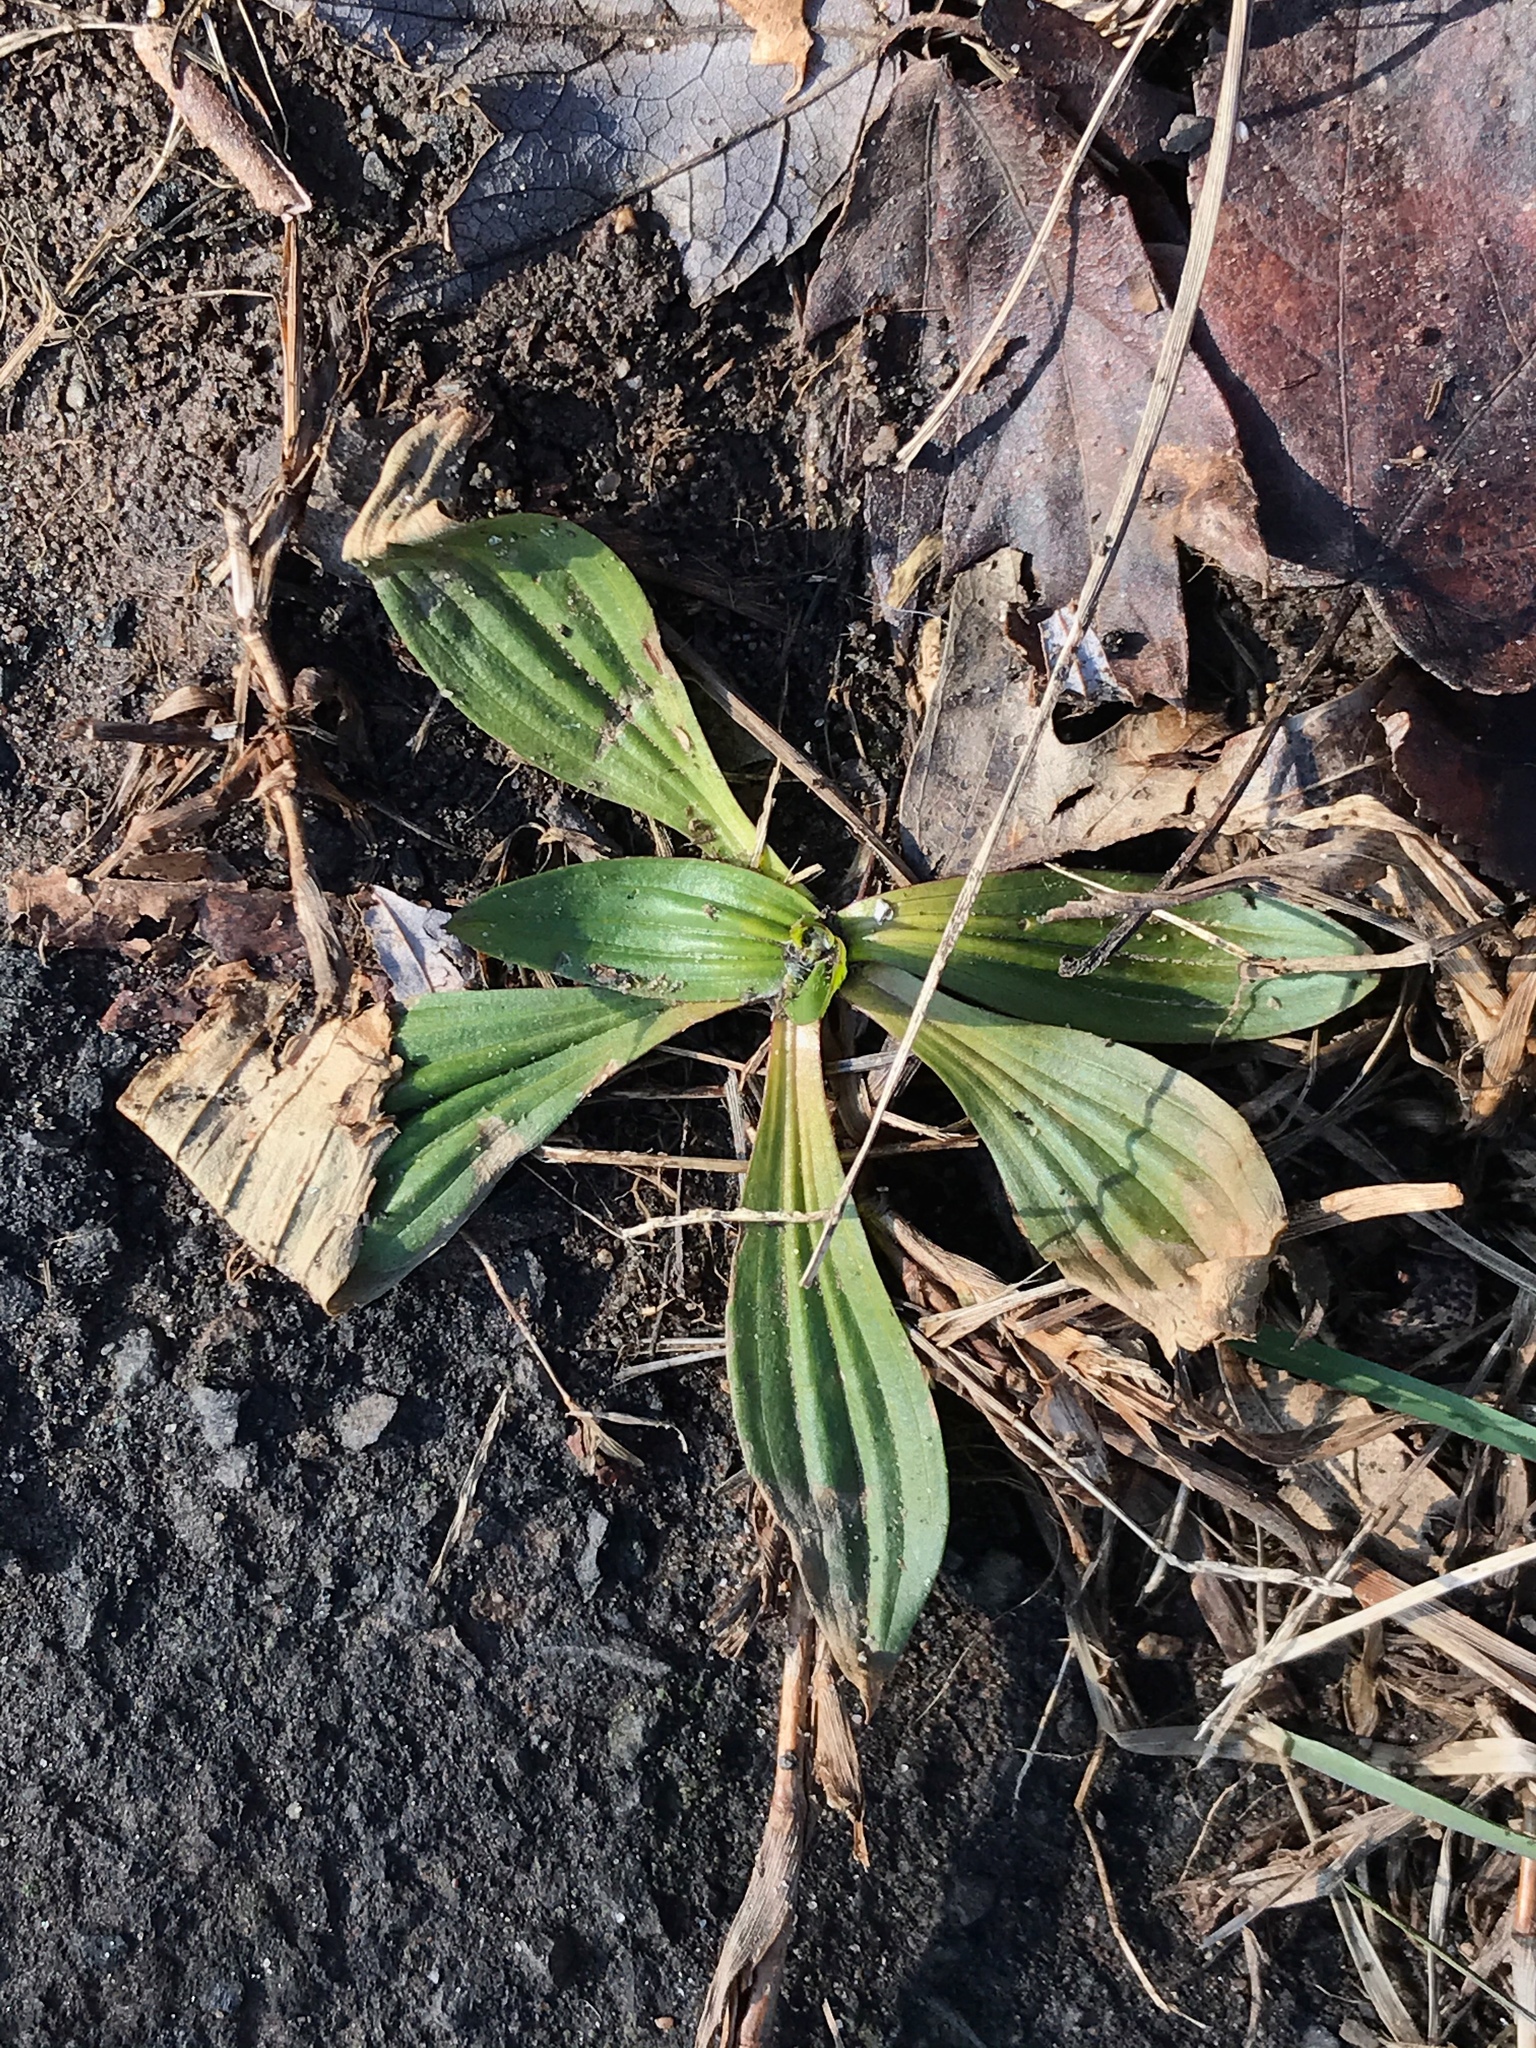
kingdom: Plantae
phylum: Tracheophyta
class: Magnoliopsida
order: Lamiales
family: Plantaginaceae
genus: Plantago
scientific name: Plantago lanceolata
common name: Ribwort plantain
